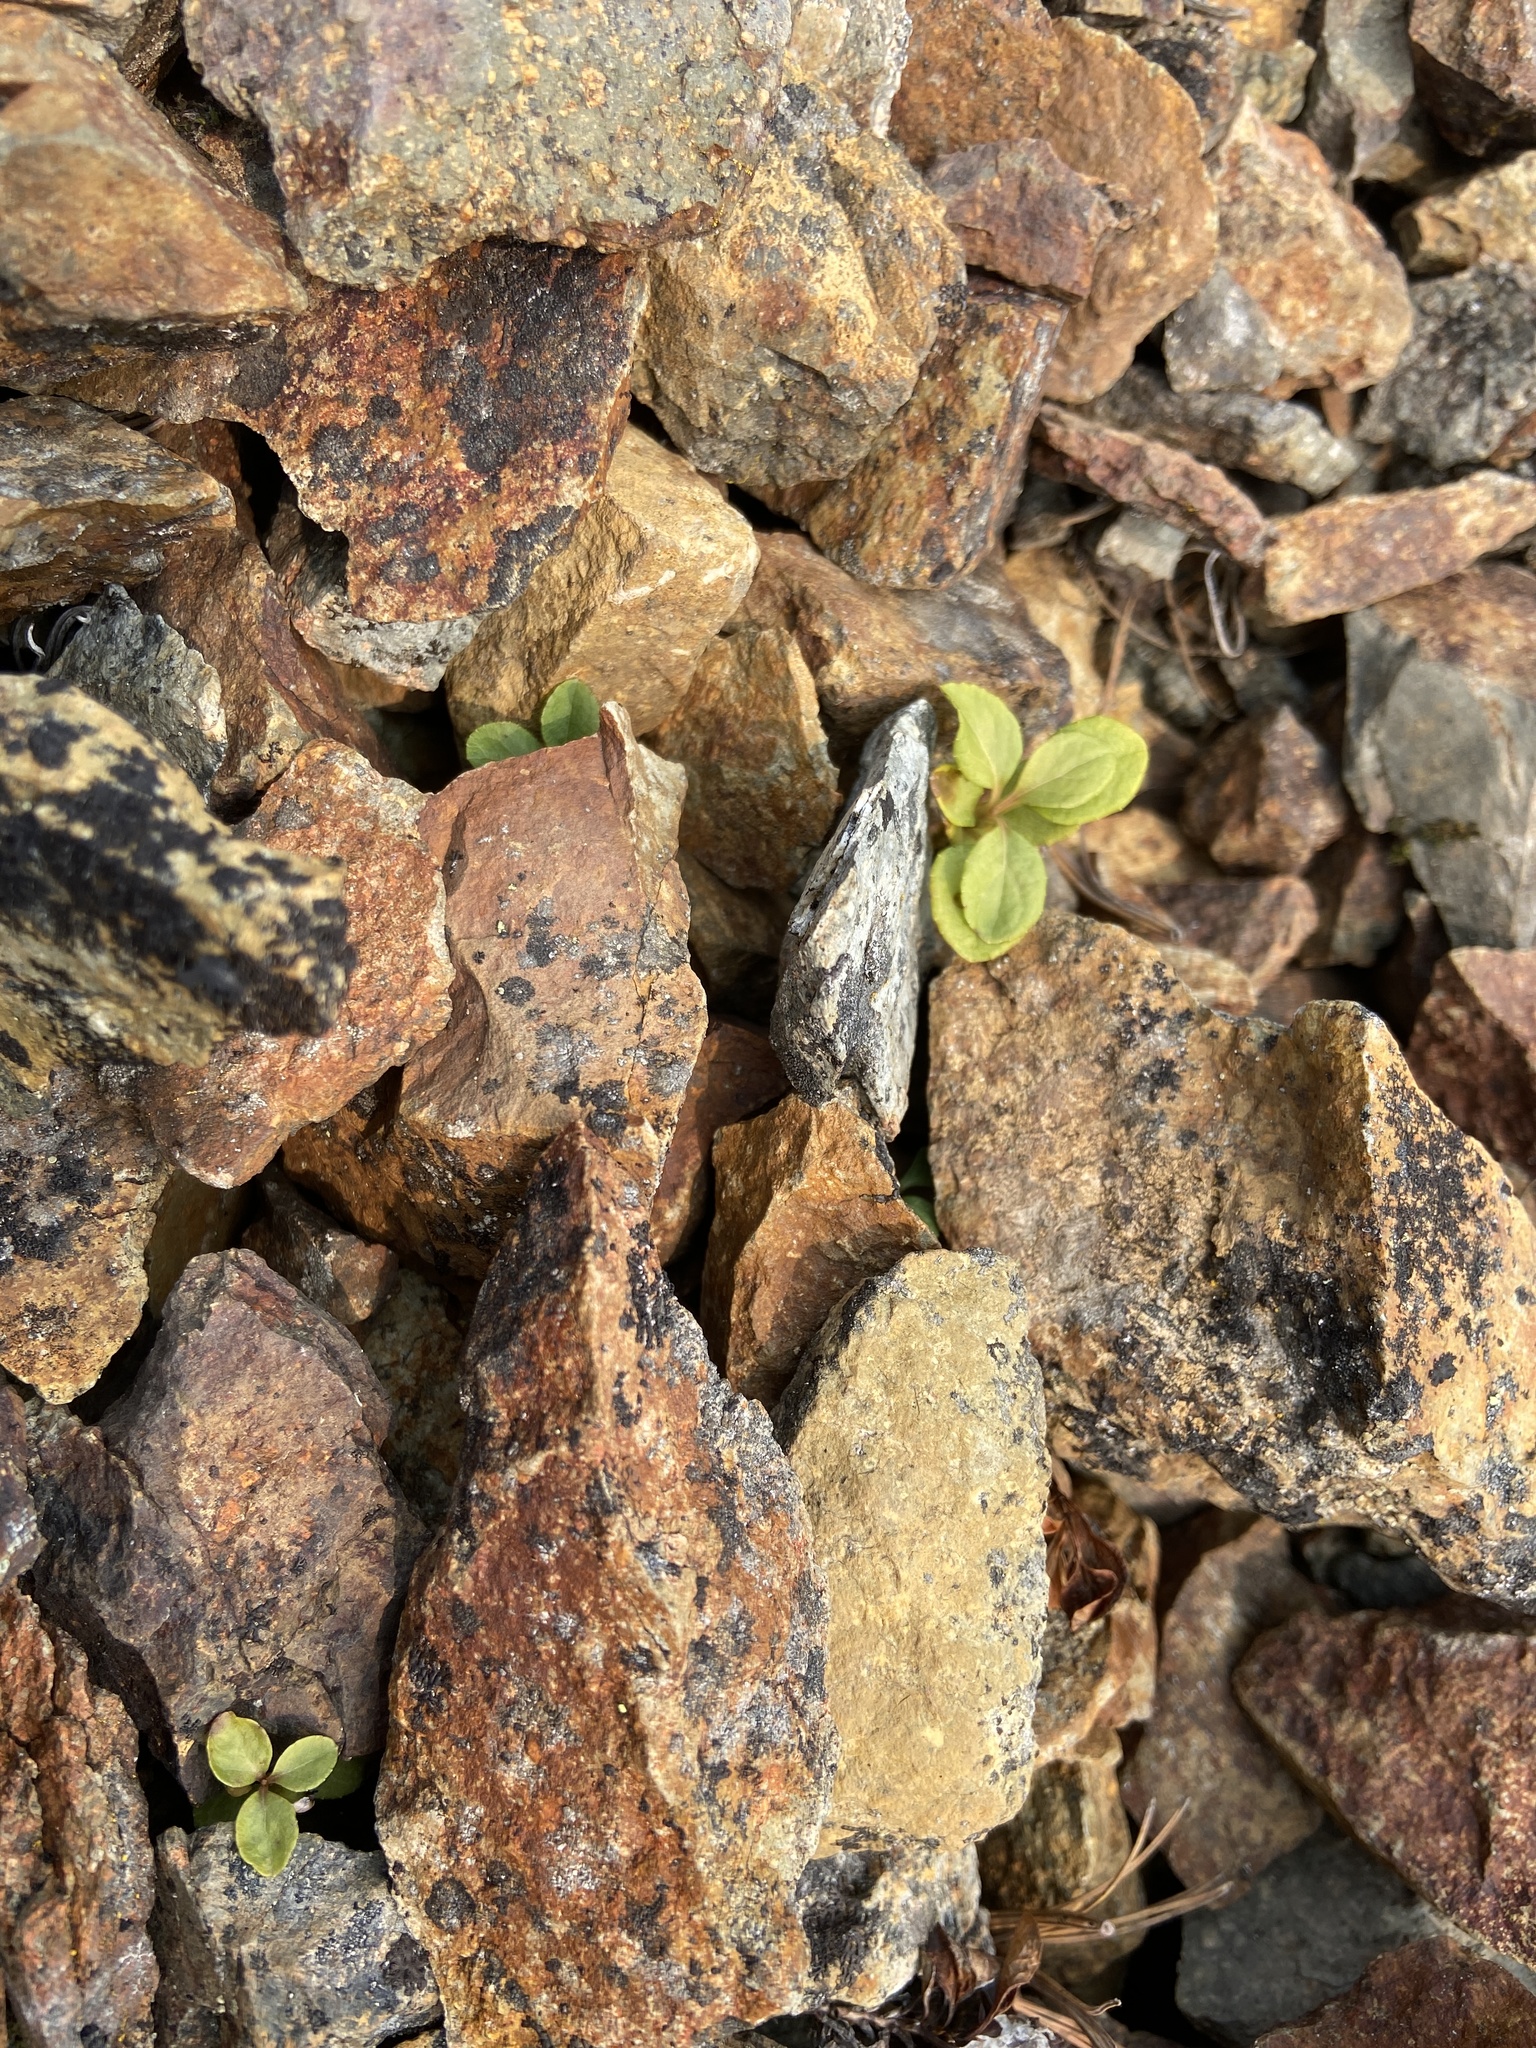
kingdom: Plantae
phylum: Tracheophyta
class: Magnoliopsida
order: Ericales
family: Ericaceae
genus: Orthilia
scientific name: Orthilia secunda
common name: One-sided orthilia
